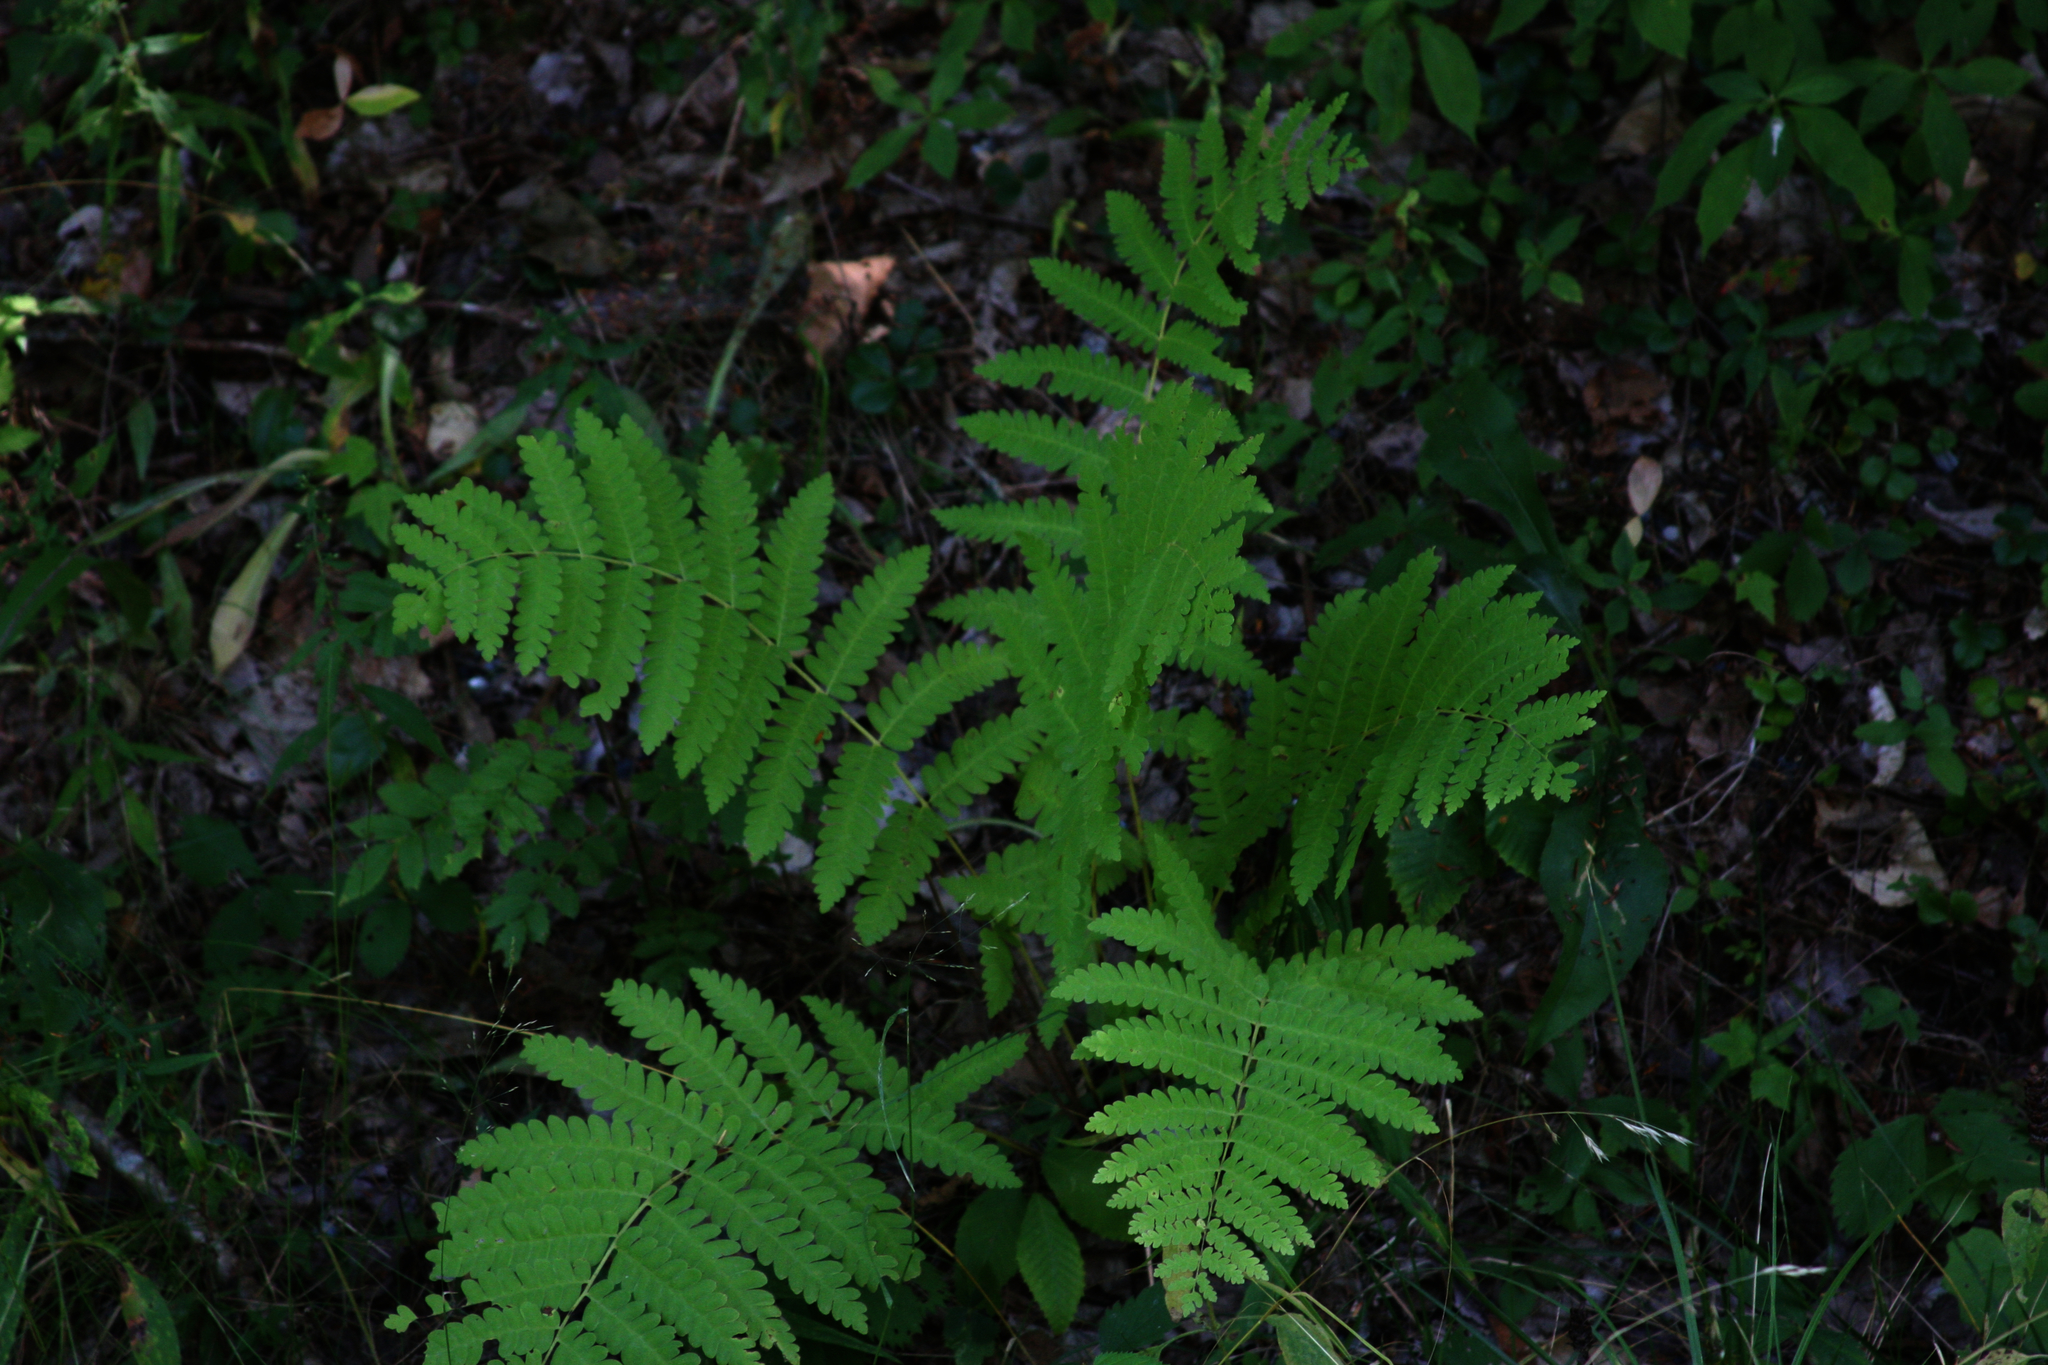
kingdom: Plantae
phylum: Tracheophyta
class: Polypodiopsida
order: Osmundales
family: Osmundaceae
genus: Claytosmunda
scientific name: Claytosmunda claytoniana
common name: Clayton's fern
